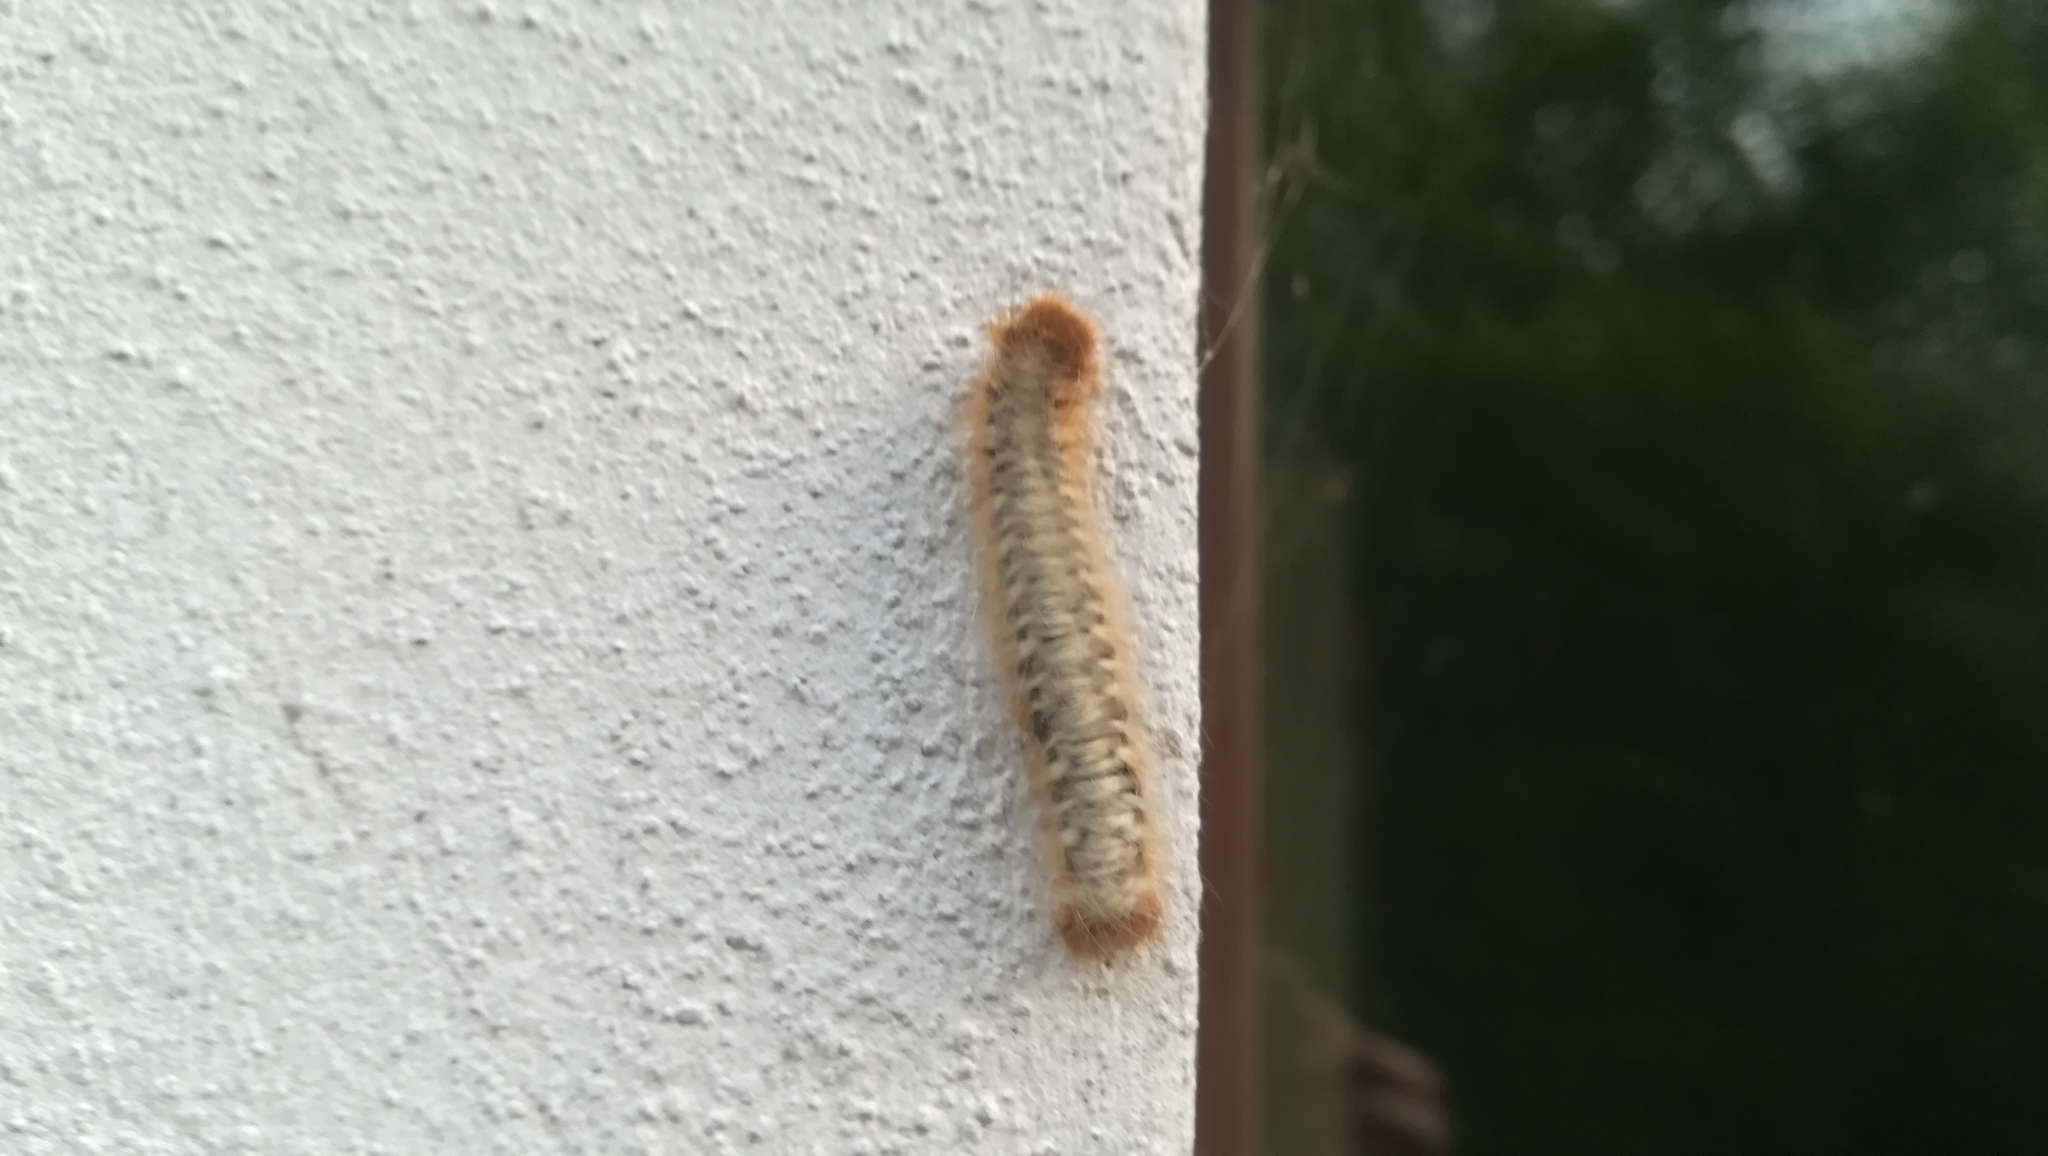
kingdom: Animalia
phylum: Arthropoda
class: Insecta
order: Lepidoptera
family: Lasiocampidae
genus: Lasiocampa
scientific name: Lasiocampa quercus
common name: Oak eggar
